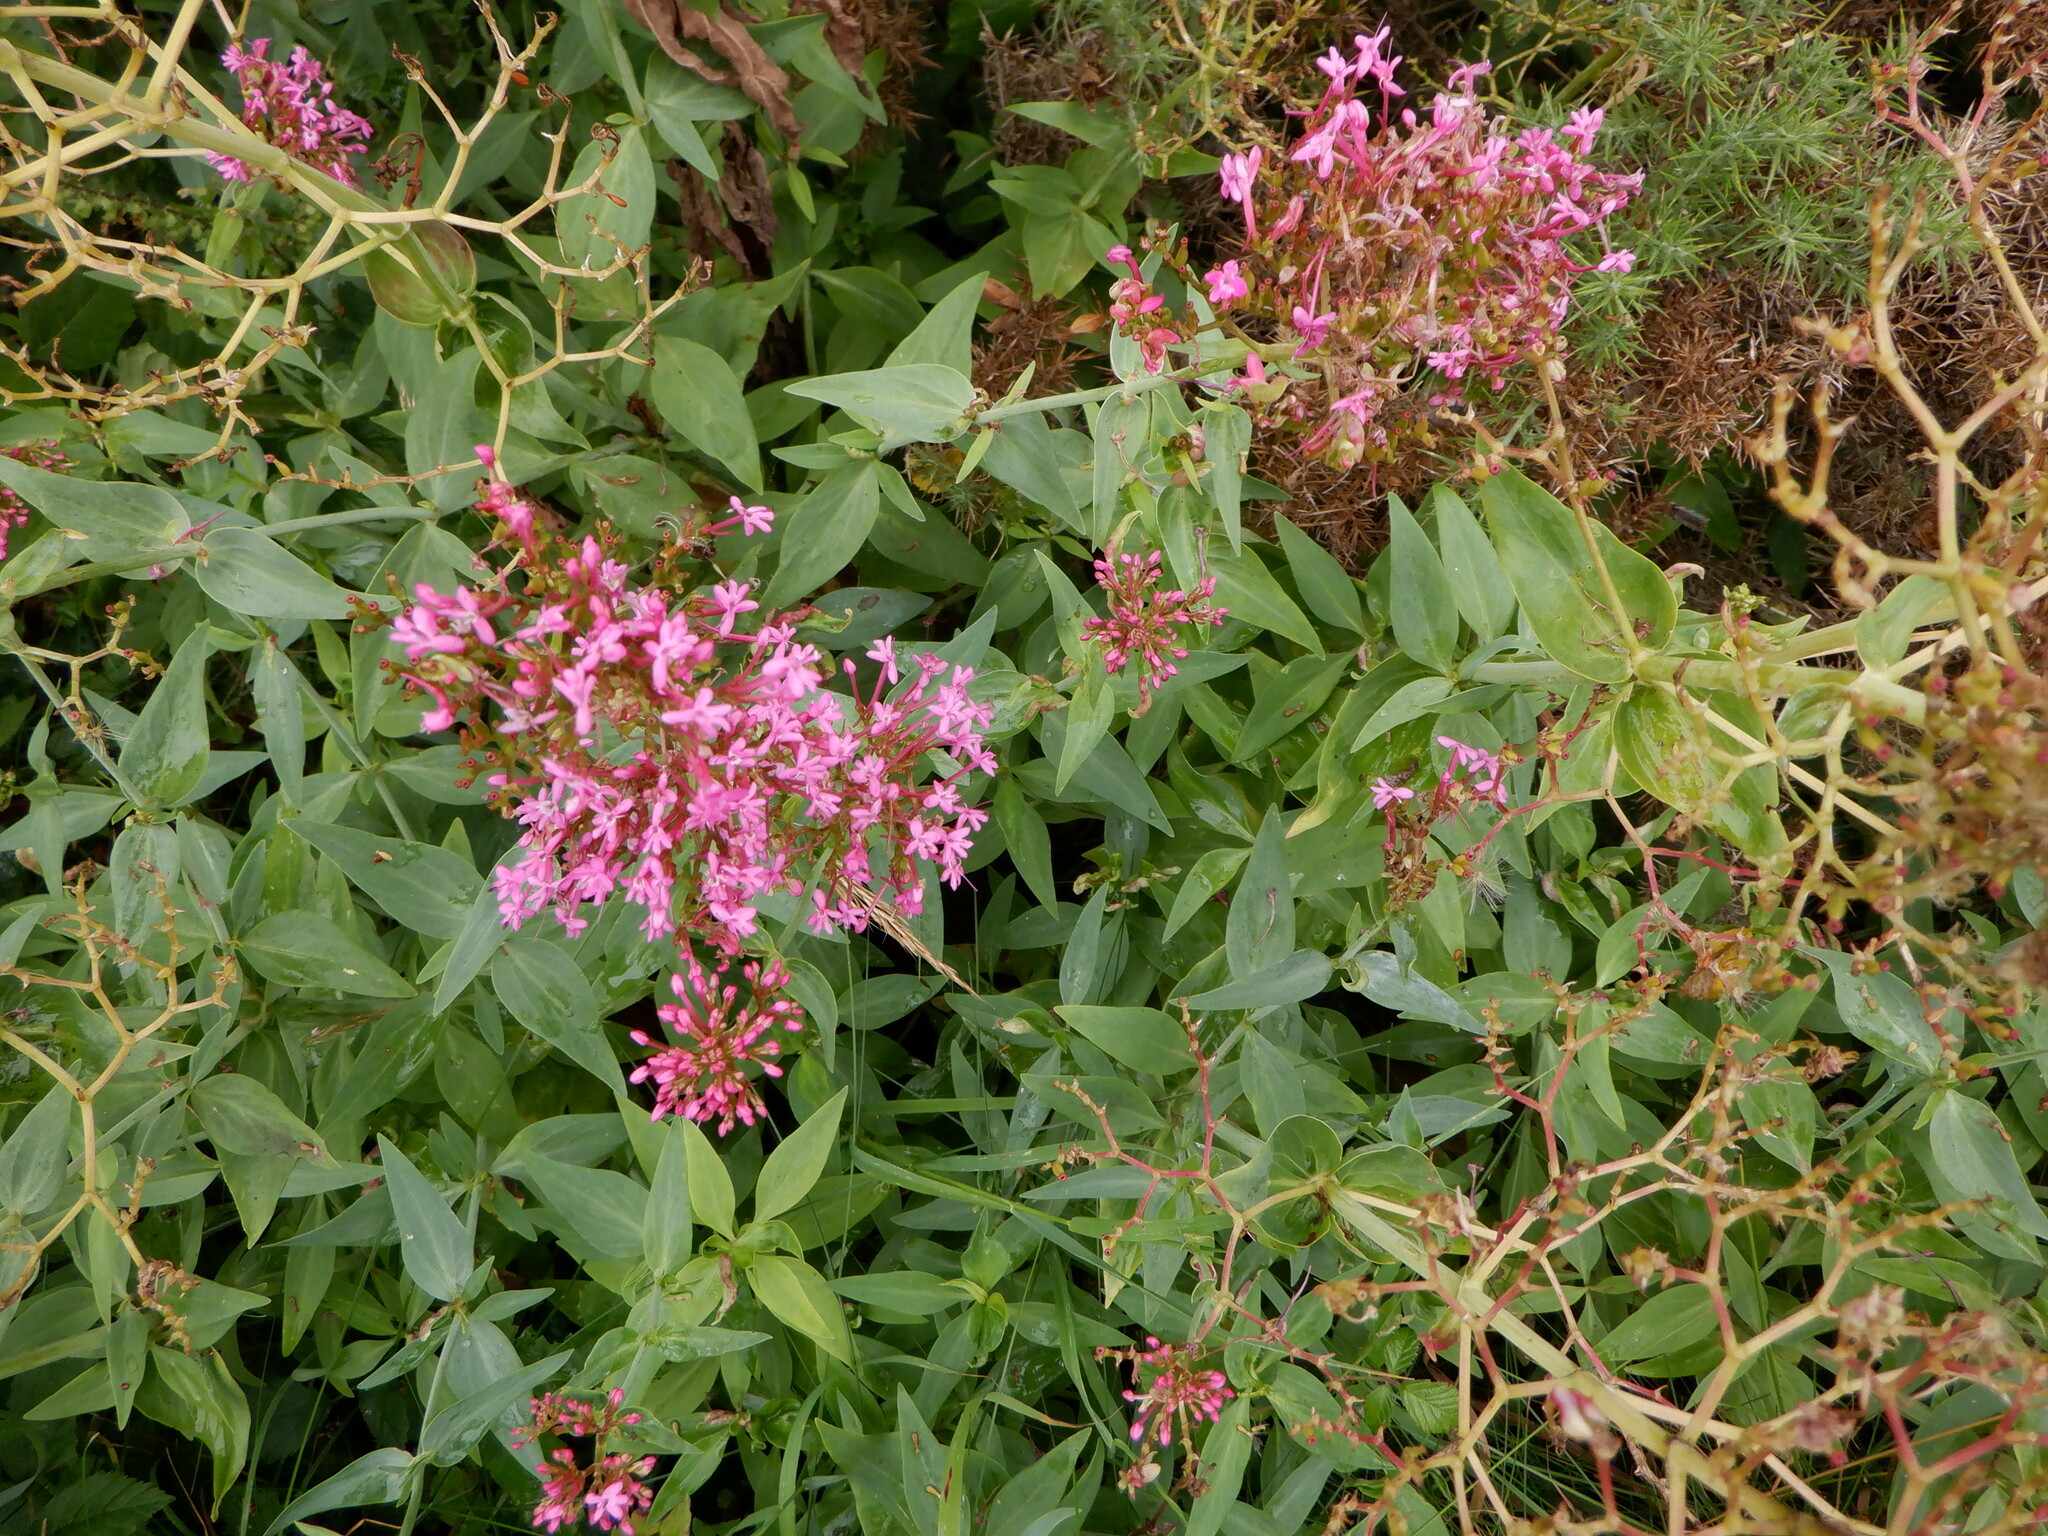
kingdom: Plantae
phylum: Tracheophyta
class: Magnoliopsida
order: Dipsacales
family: Caprifoliaceae
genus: Centranthus
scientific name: Centranthus ruber
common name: Red valerian
